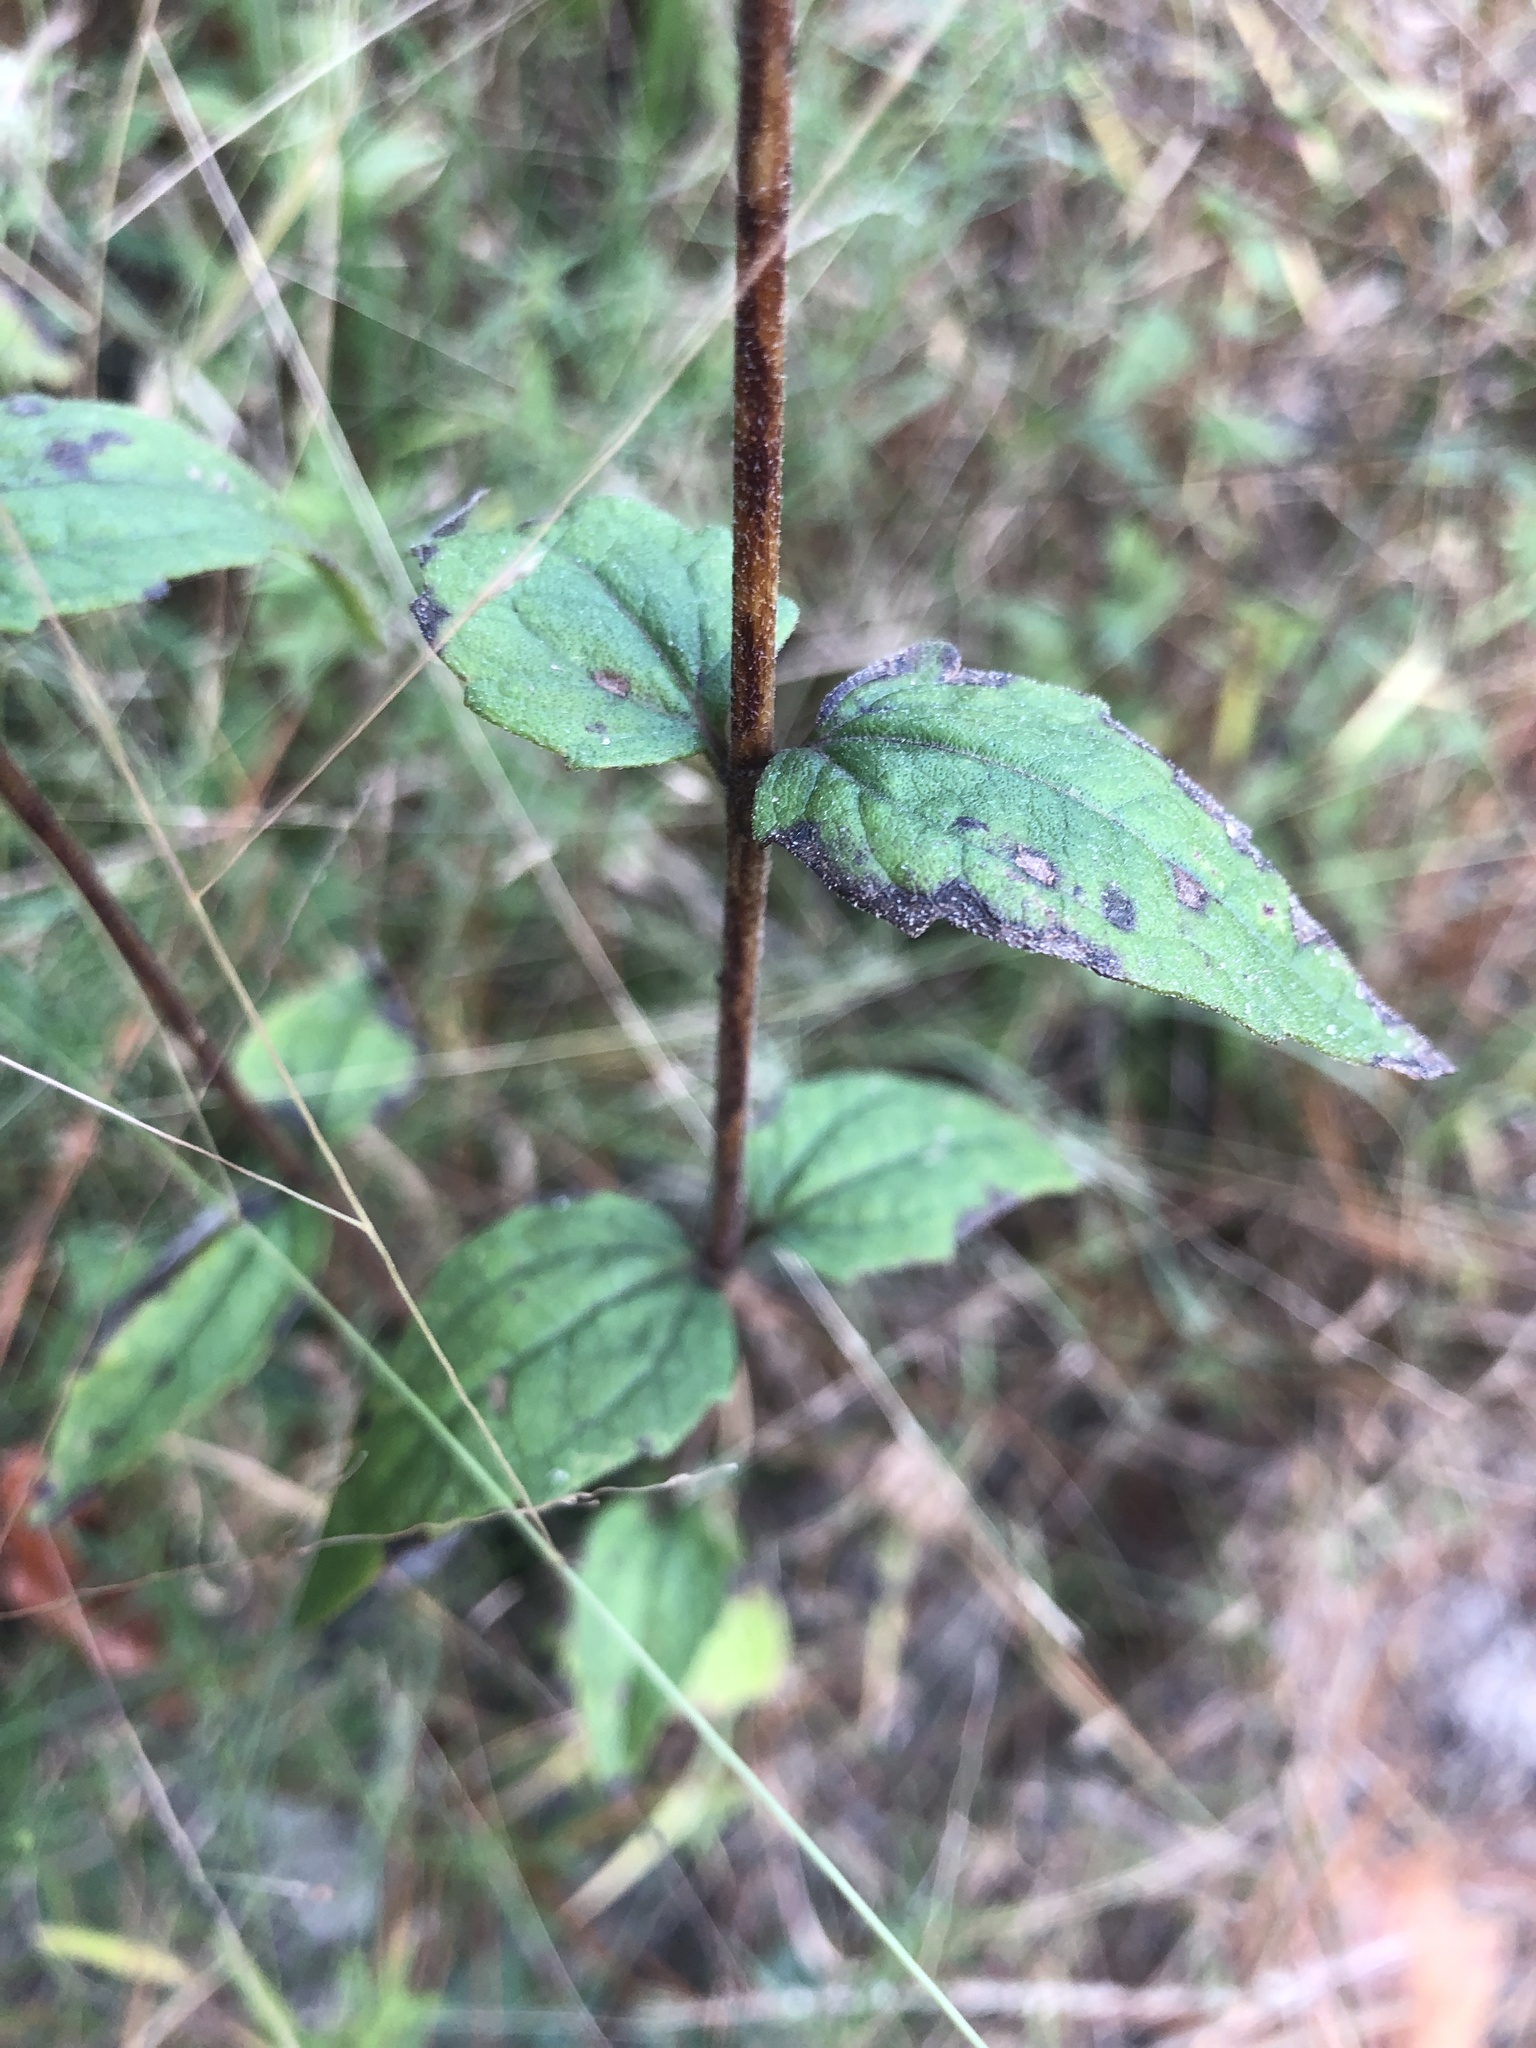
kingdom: Plantae
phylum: Tracheophyta
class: Magnoliopsida
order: Asterales
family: Asteraceae
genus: Eupatorium
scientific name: Eupatorium pilosum
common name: Rough boneset
